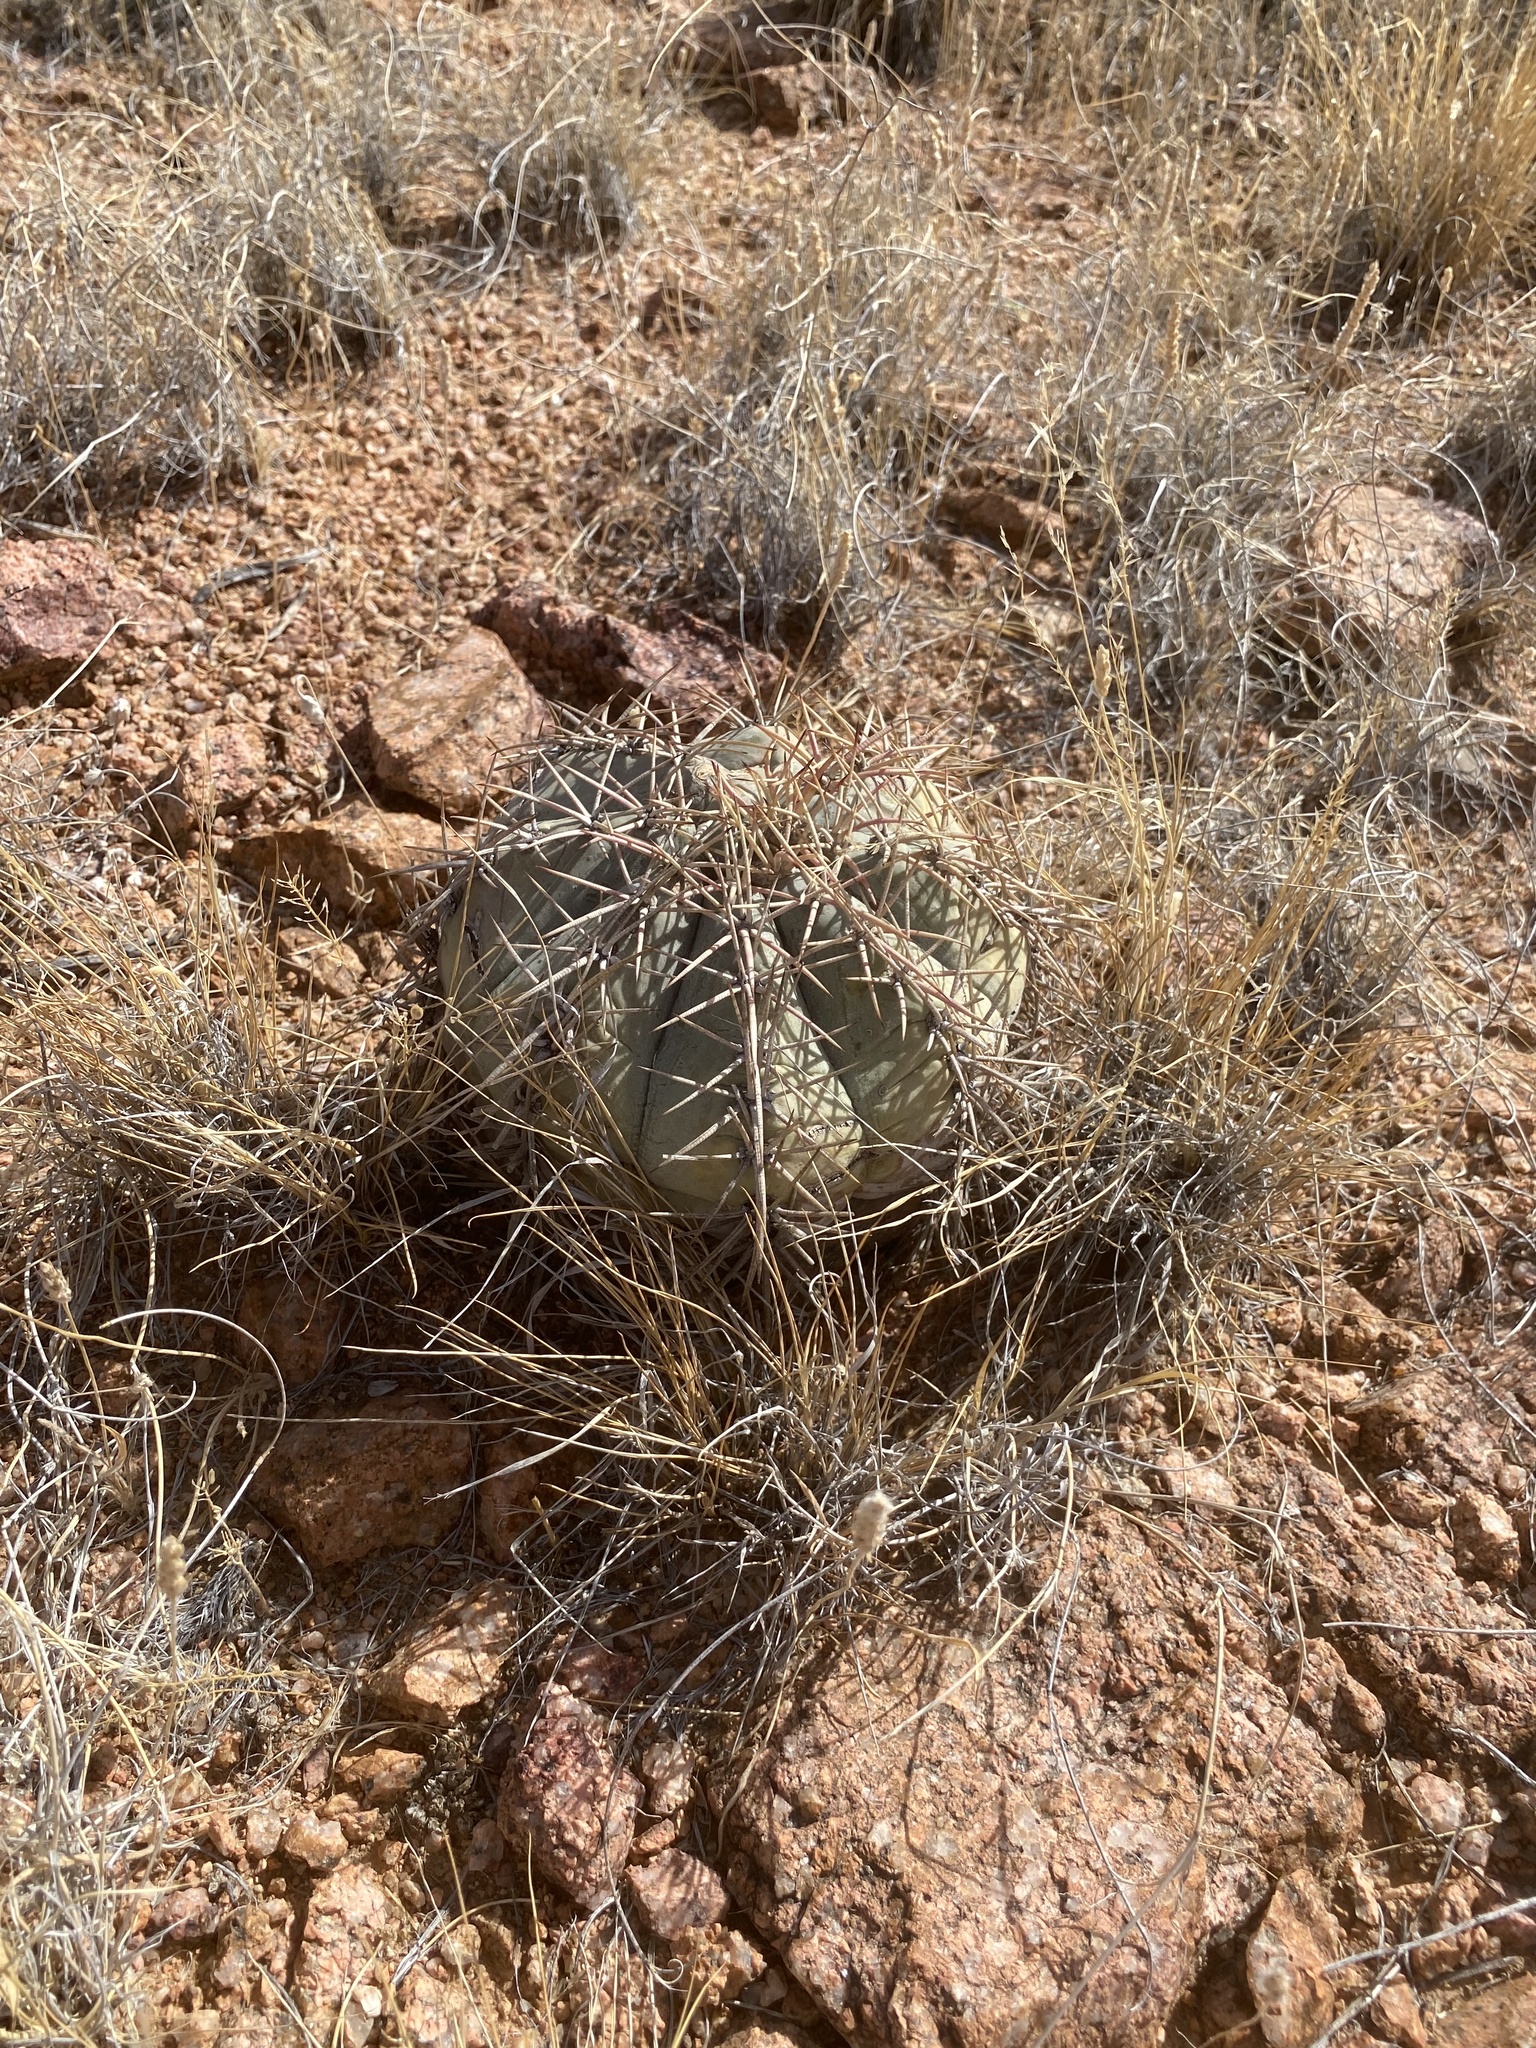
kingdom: Plantae
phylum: Tracheophyta
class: Magnoliopsida
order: Caryophyllales
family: Cactaceae
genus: Echinocactus
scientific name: Echinocactus horizonthalonius
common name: Devilshead
